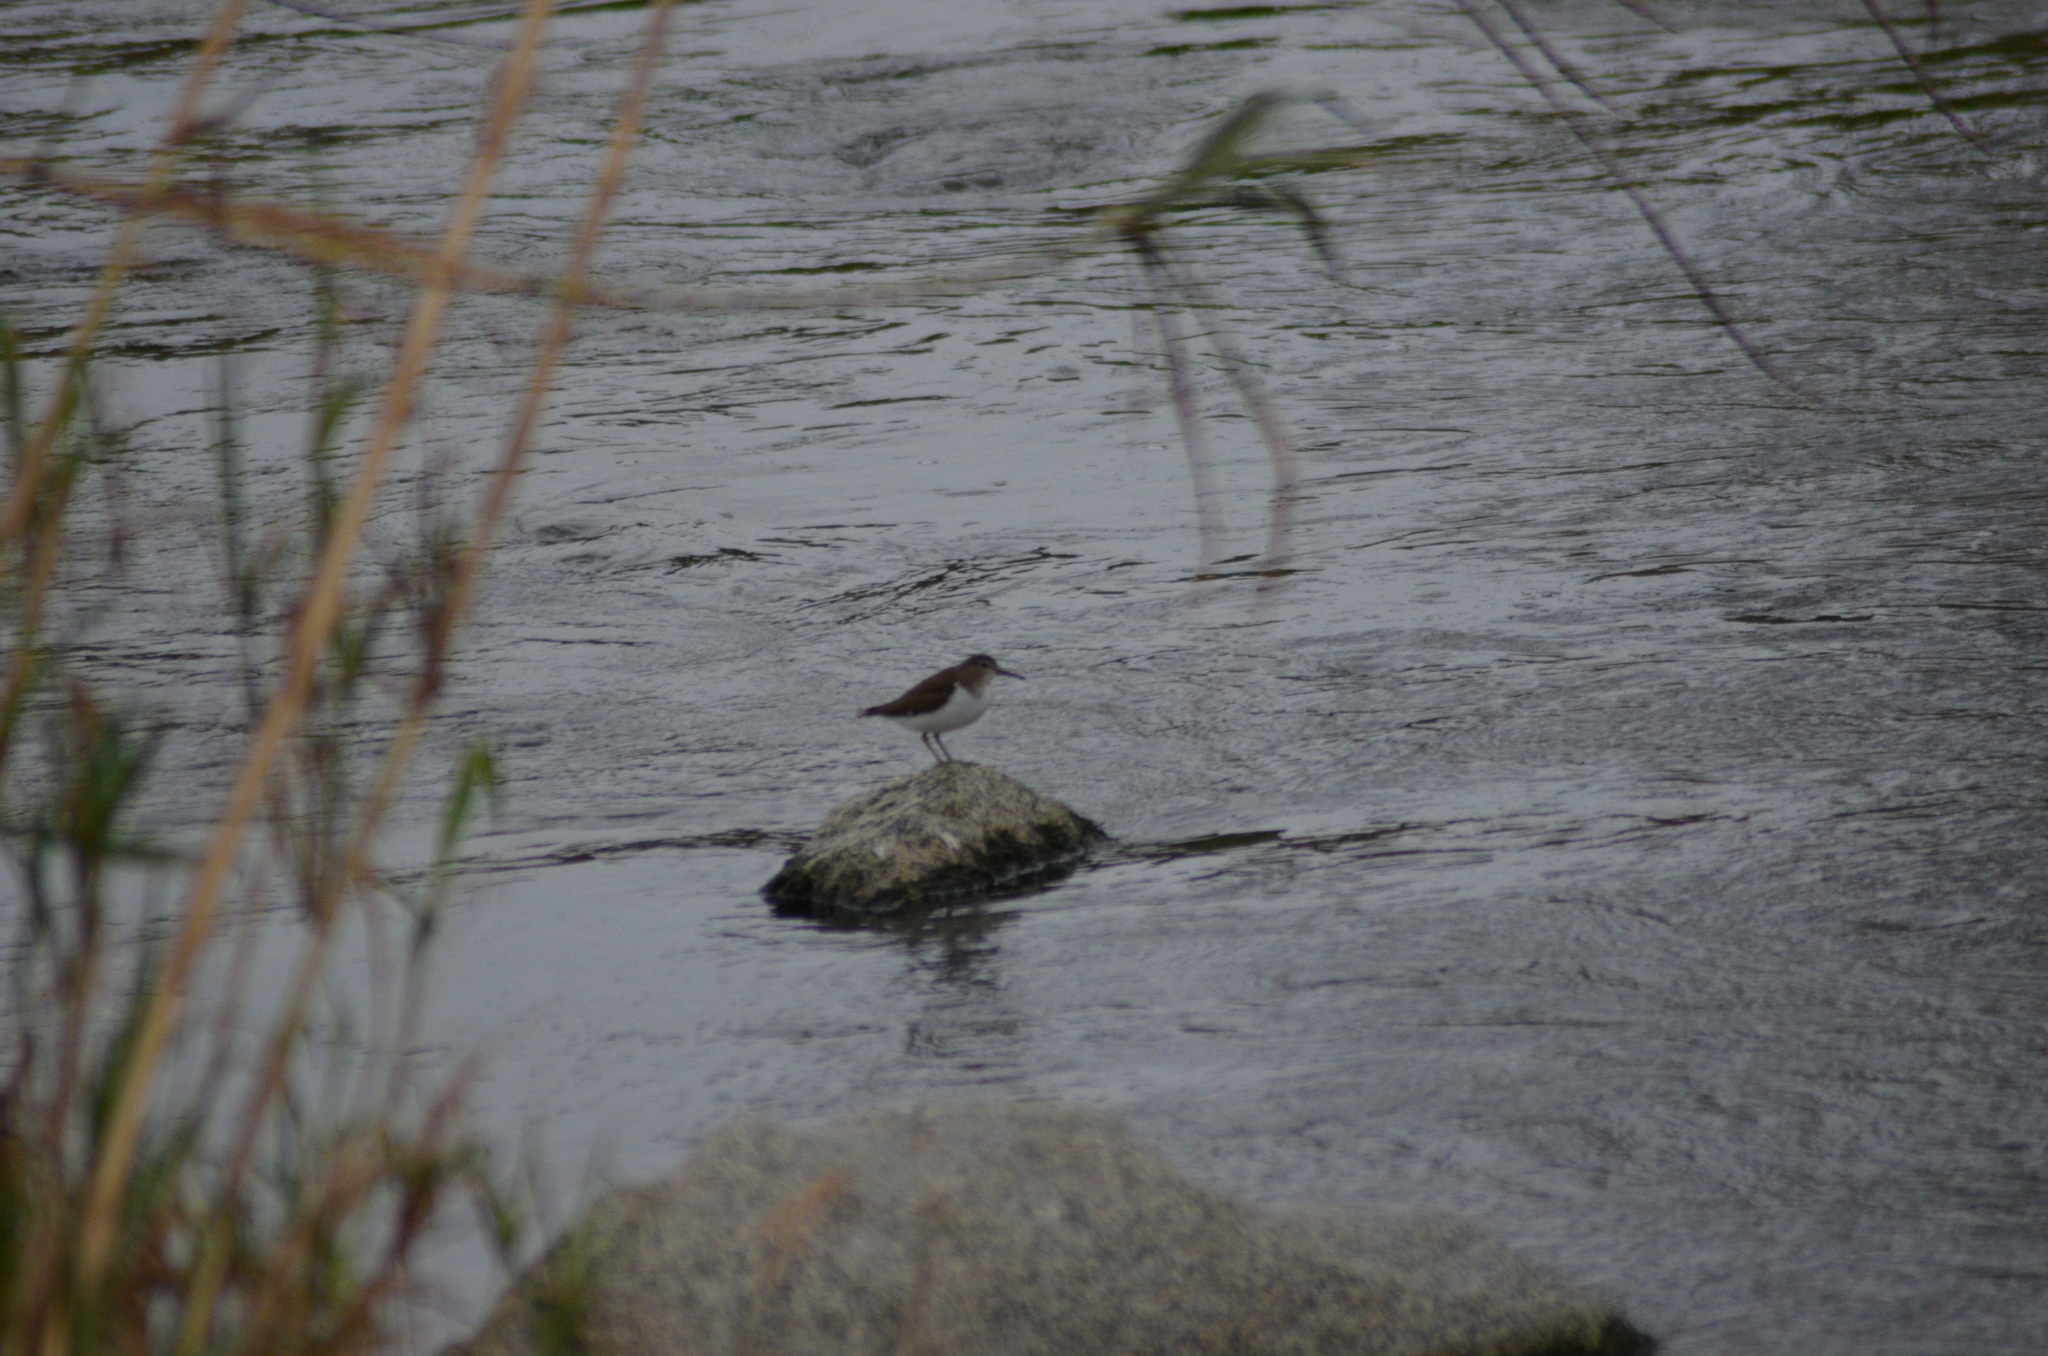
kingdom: Animalia
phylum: Chordata
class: Aves
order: Charadriiformes
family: Scolopacidae
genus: Actitis
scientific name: Actitis hypoleucos
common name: Common sandpiper
